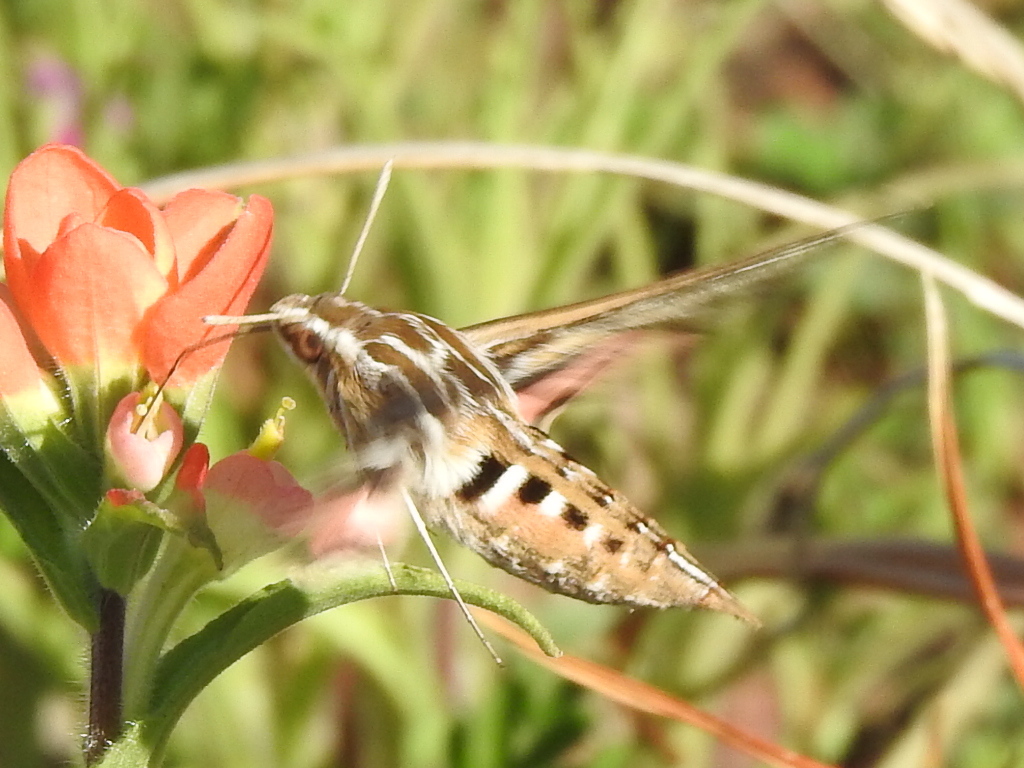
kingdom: Animalia
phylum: Arthropoda
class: Insecta
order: Lepidoptera
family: Sphingidae
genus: Hyles
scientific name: Hyles lineata
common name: White-lined sphinx
